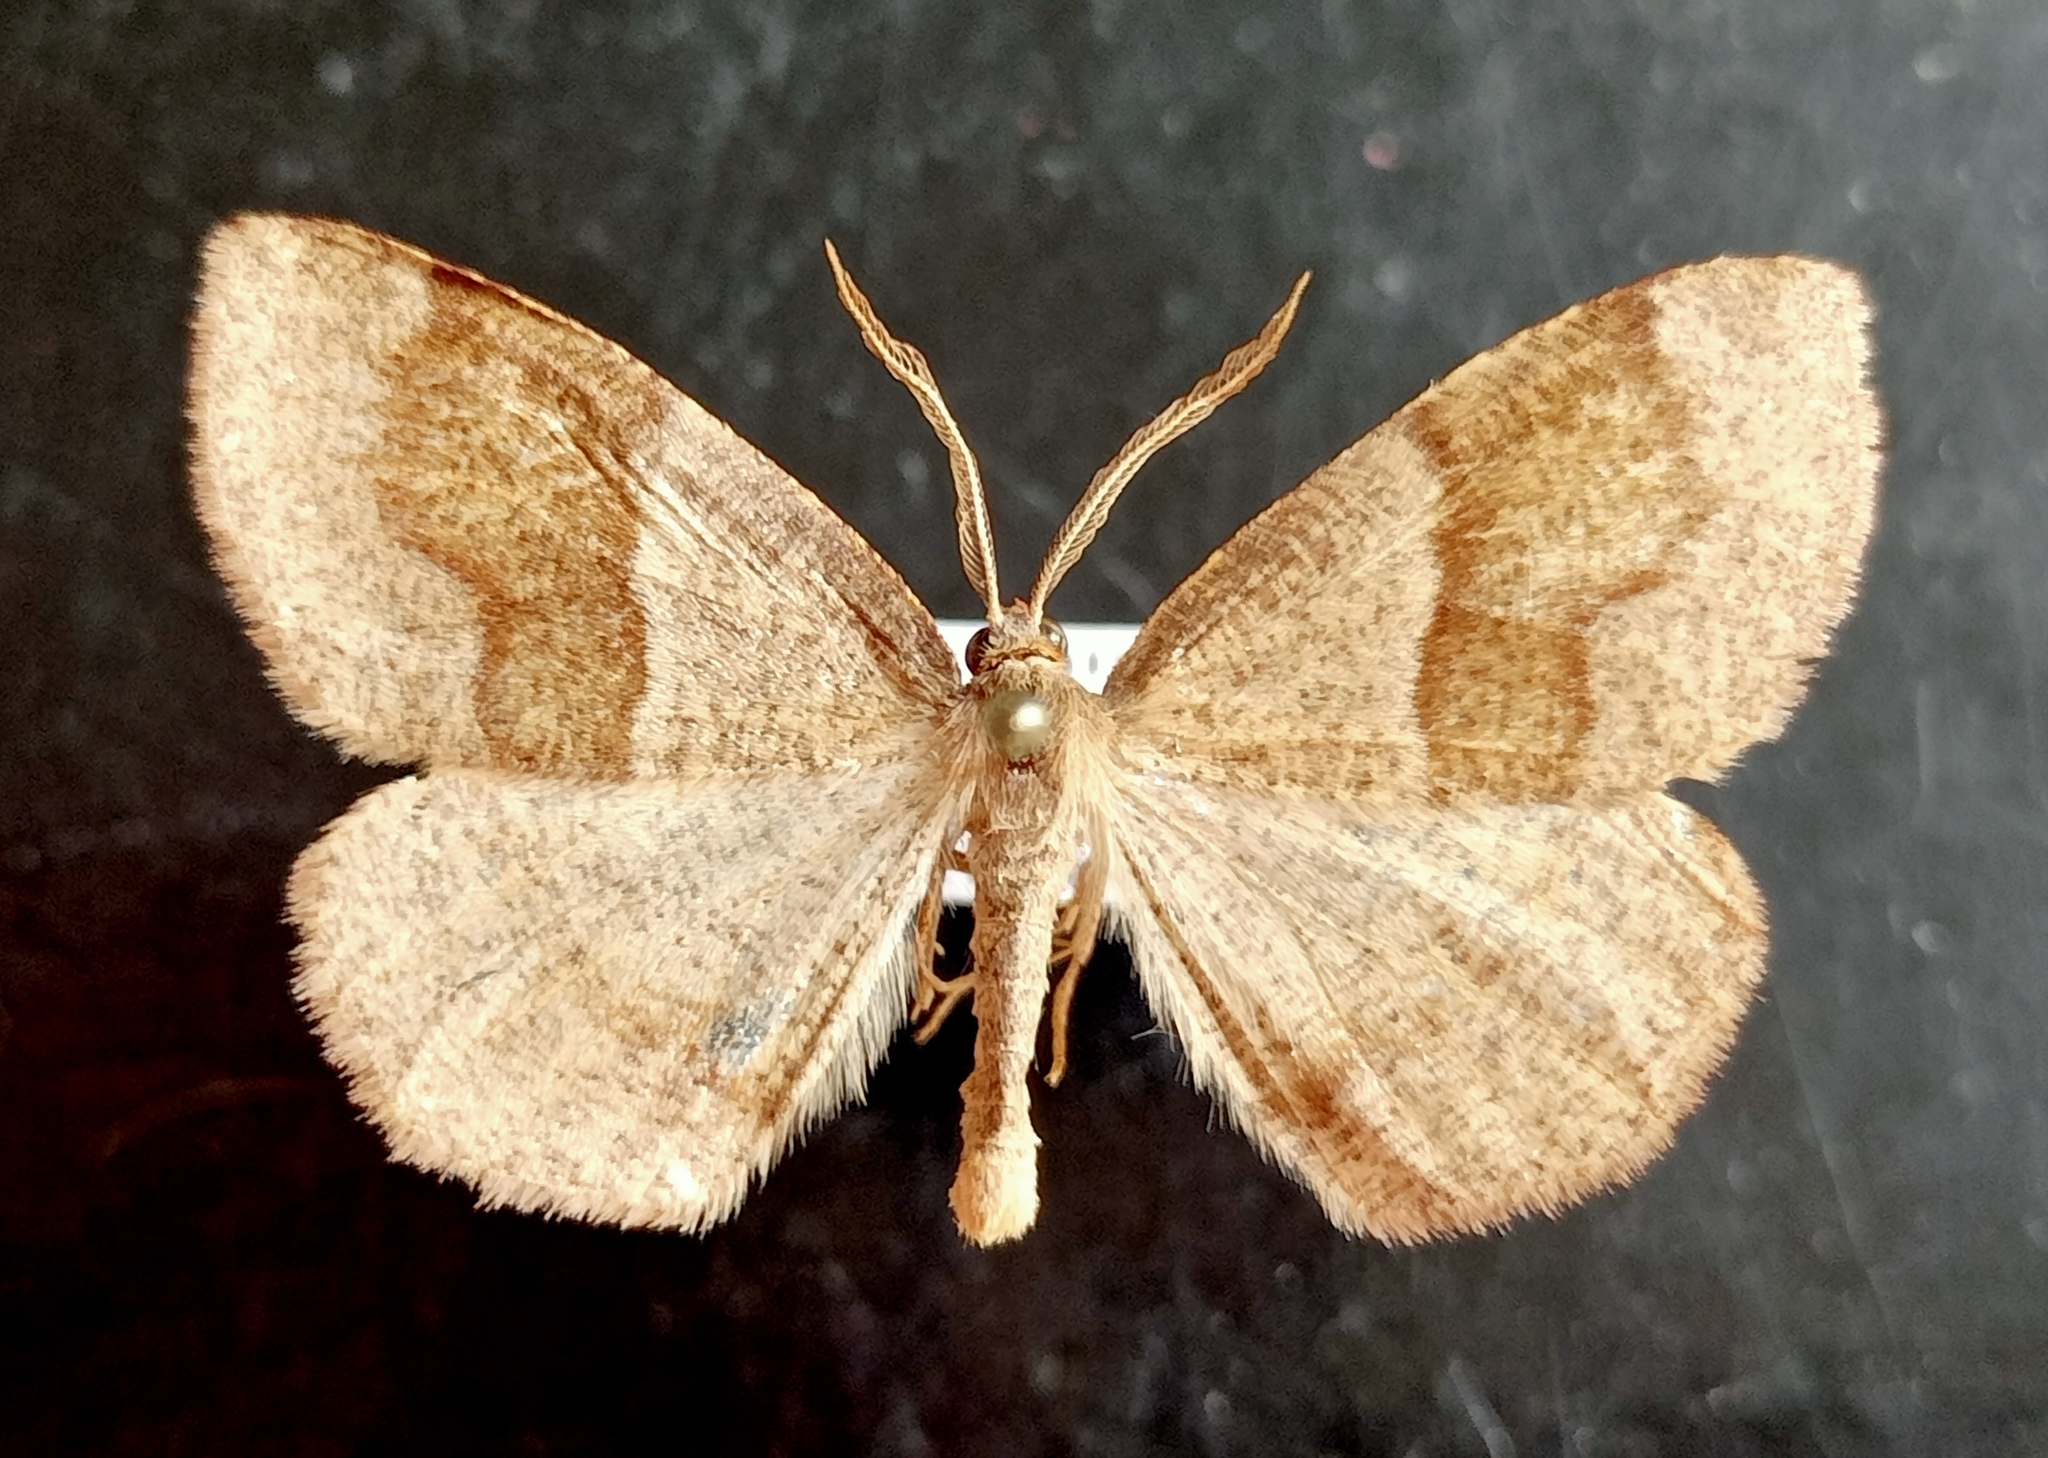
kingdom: Animalia
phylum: Arthropoda
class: Insecta
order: Lepidoptera
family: Geometridae
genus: Plagodis
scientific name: Plagodis pulveraria
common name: Barred umber
